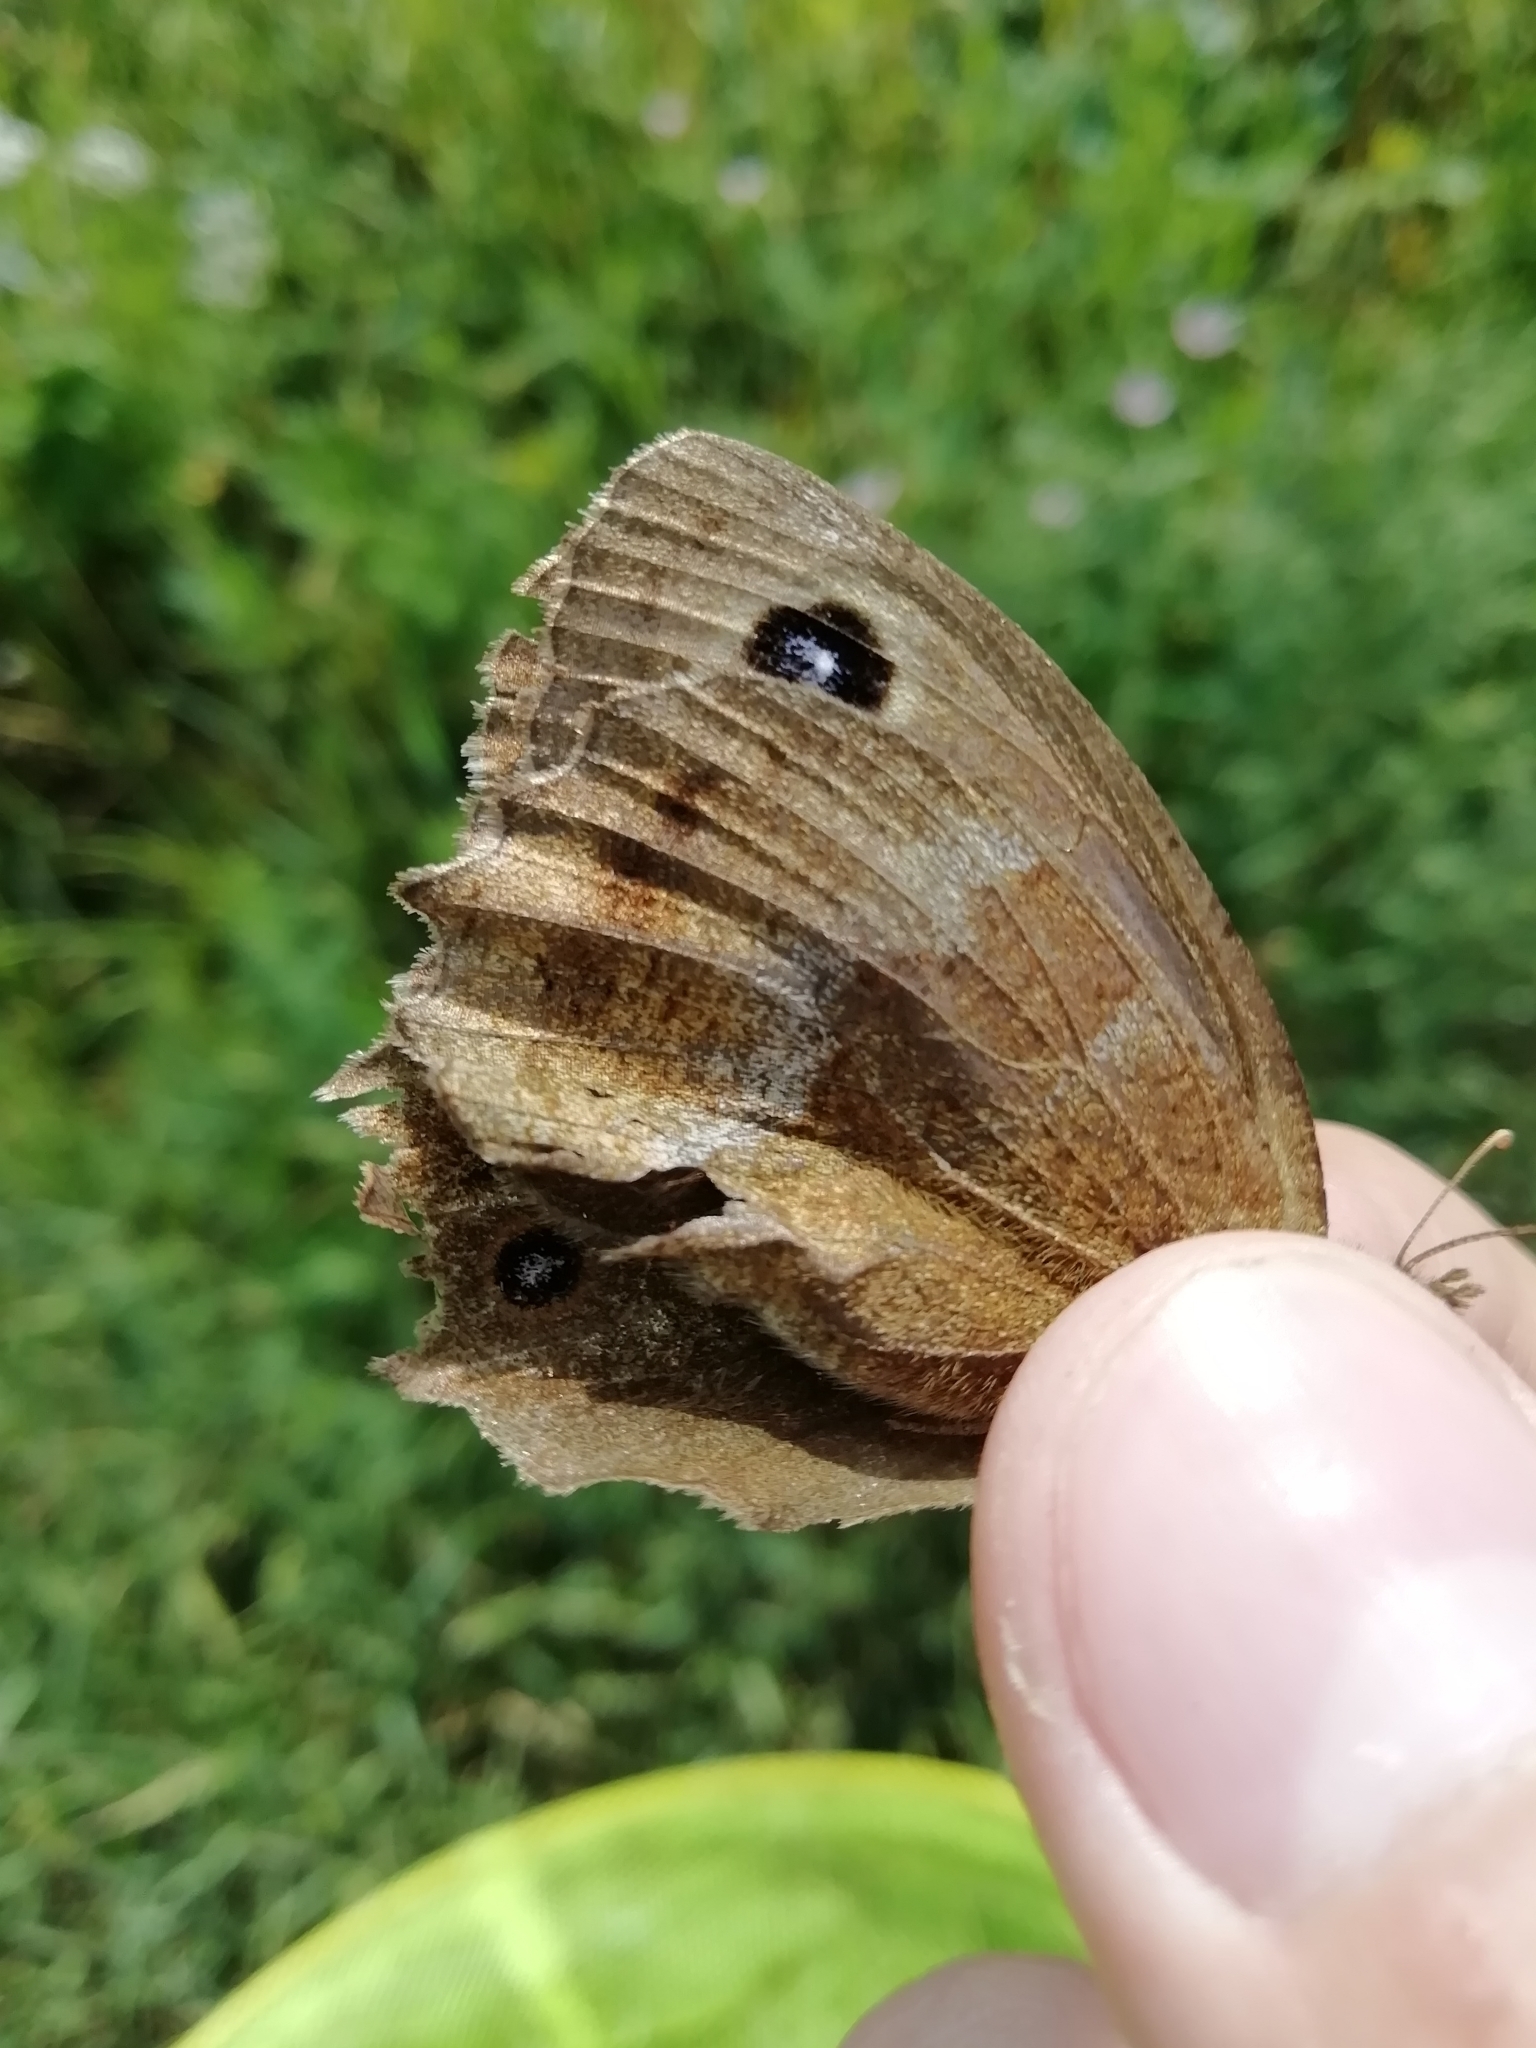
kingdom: Animalia
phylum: Arthropoda
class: Insecta
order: Lepidoptera
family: Nymphalidae
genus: Minois
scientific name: Minois dryas
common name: Dryad
